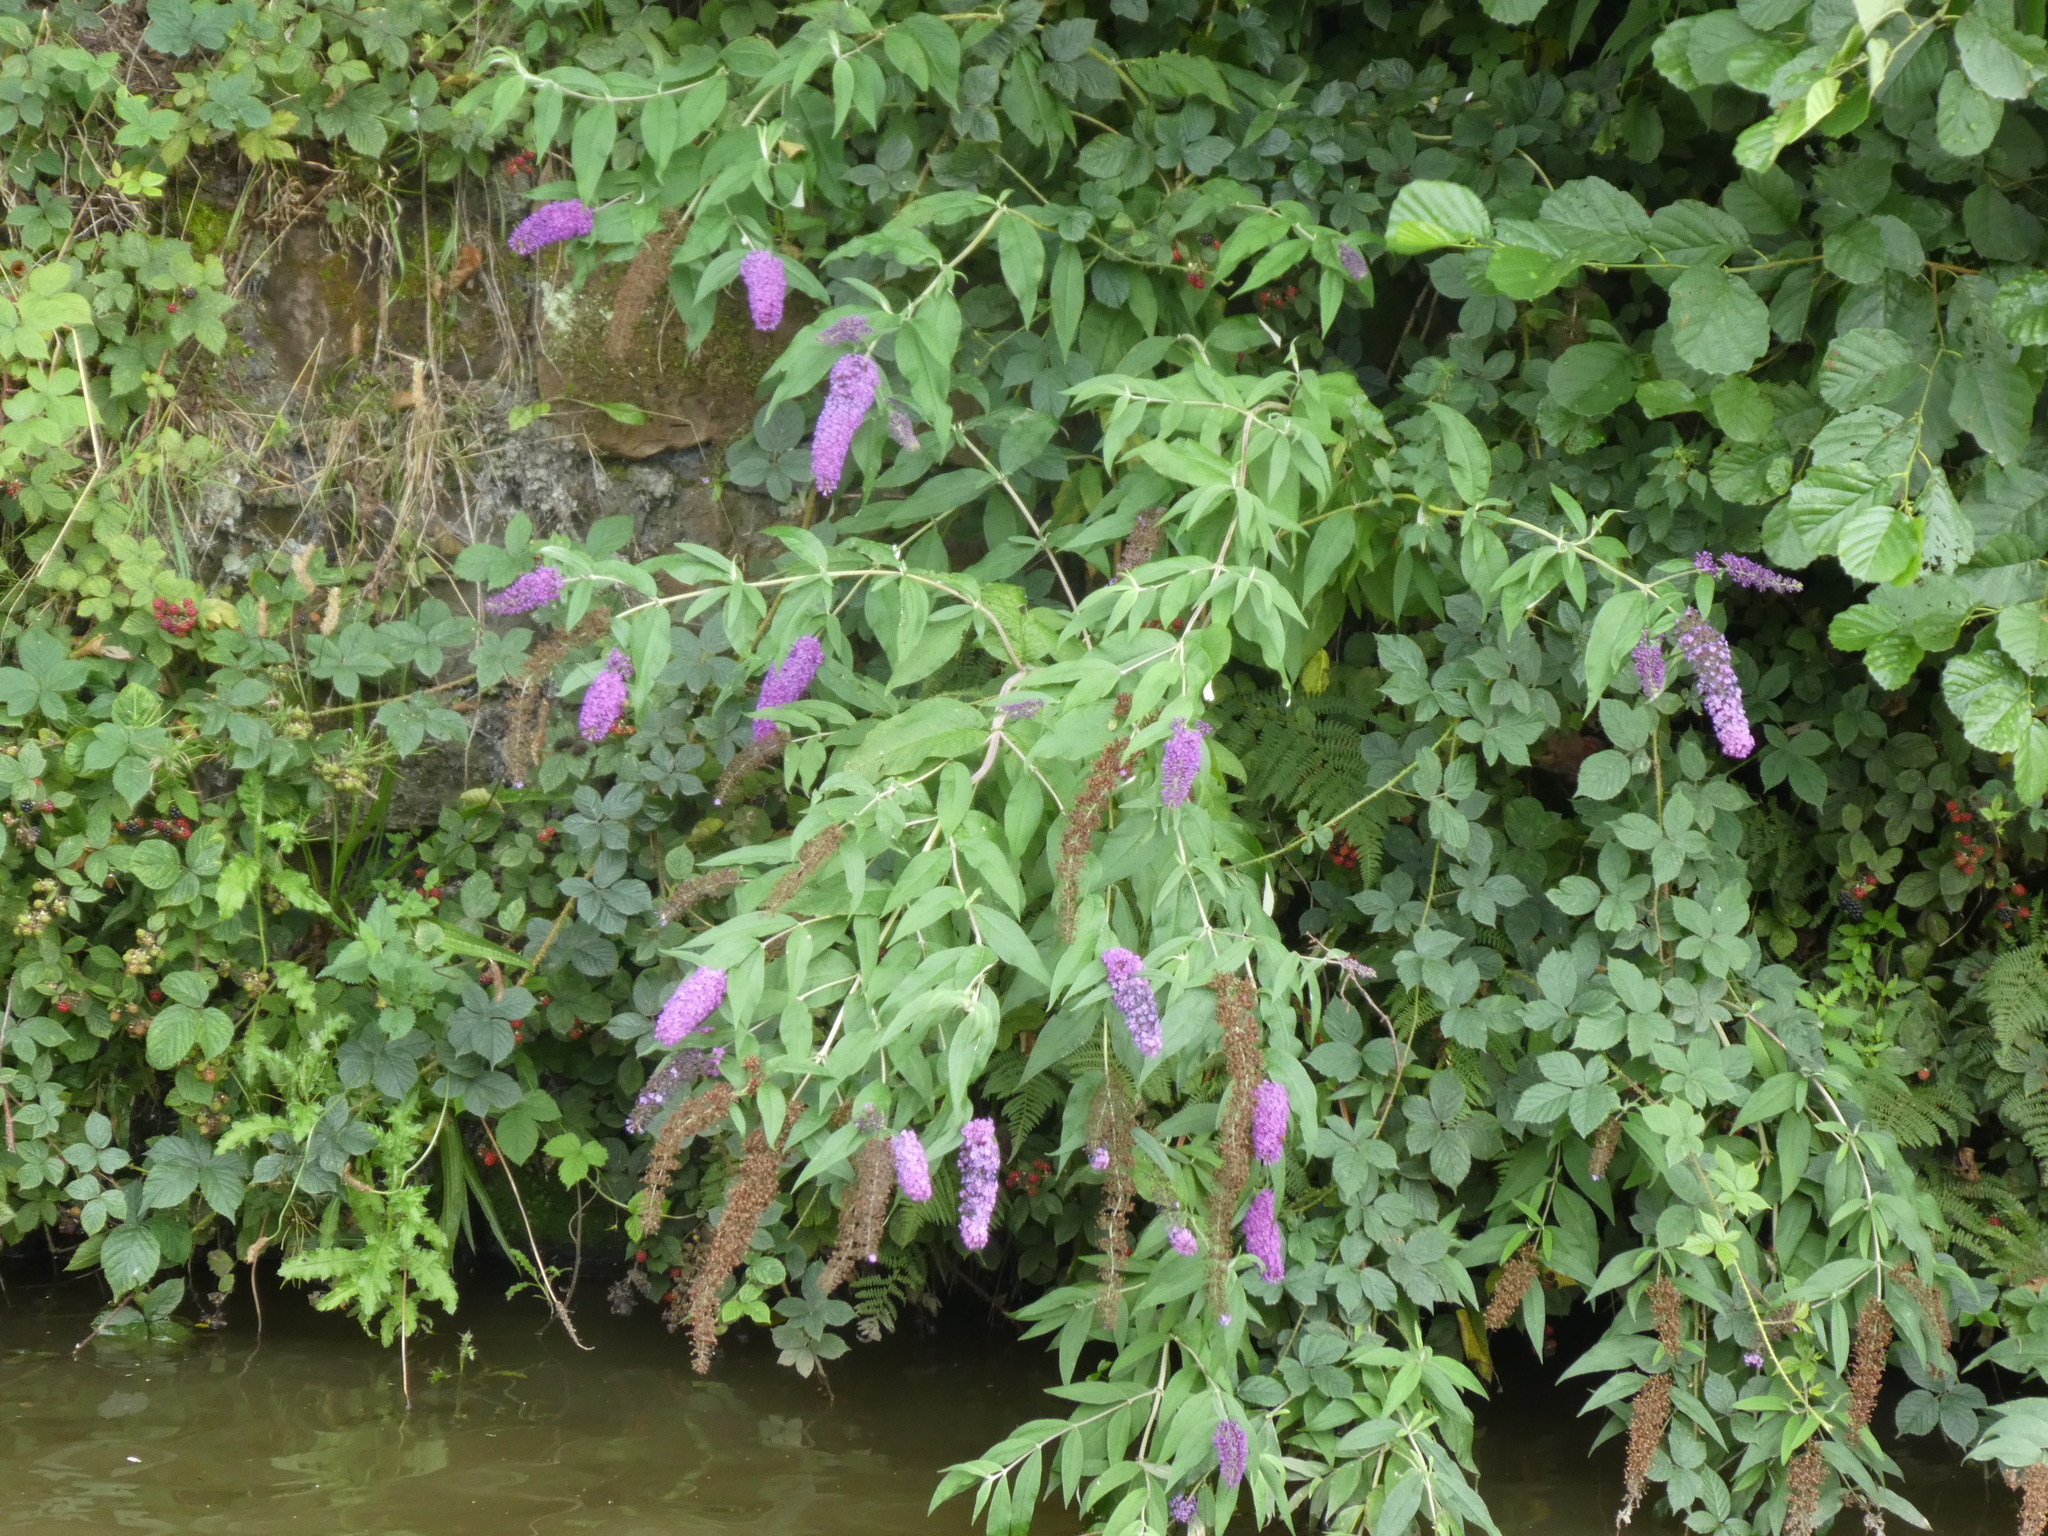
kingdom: Plantae
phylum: Tracheophyta
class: Magnoliopsida
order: Lamiales
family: Scrophulariaceae
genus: Buddleja
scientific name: Buddleja davidii
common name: Butterfly-bush
